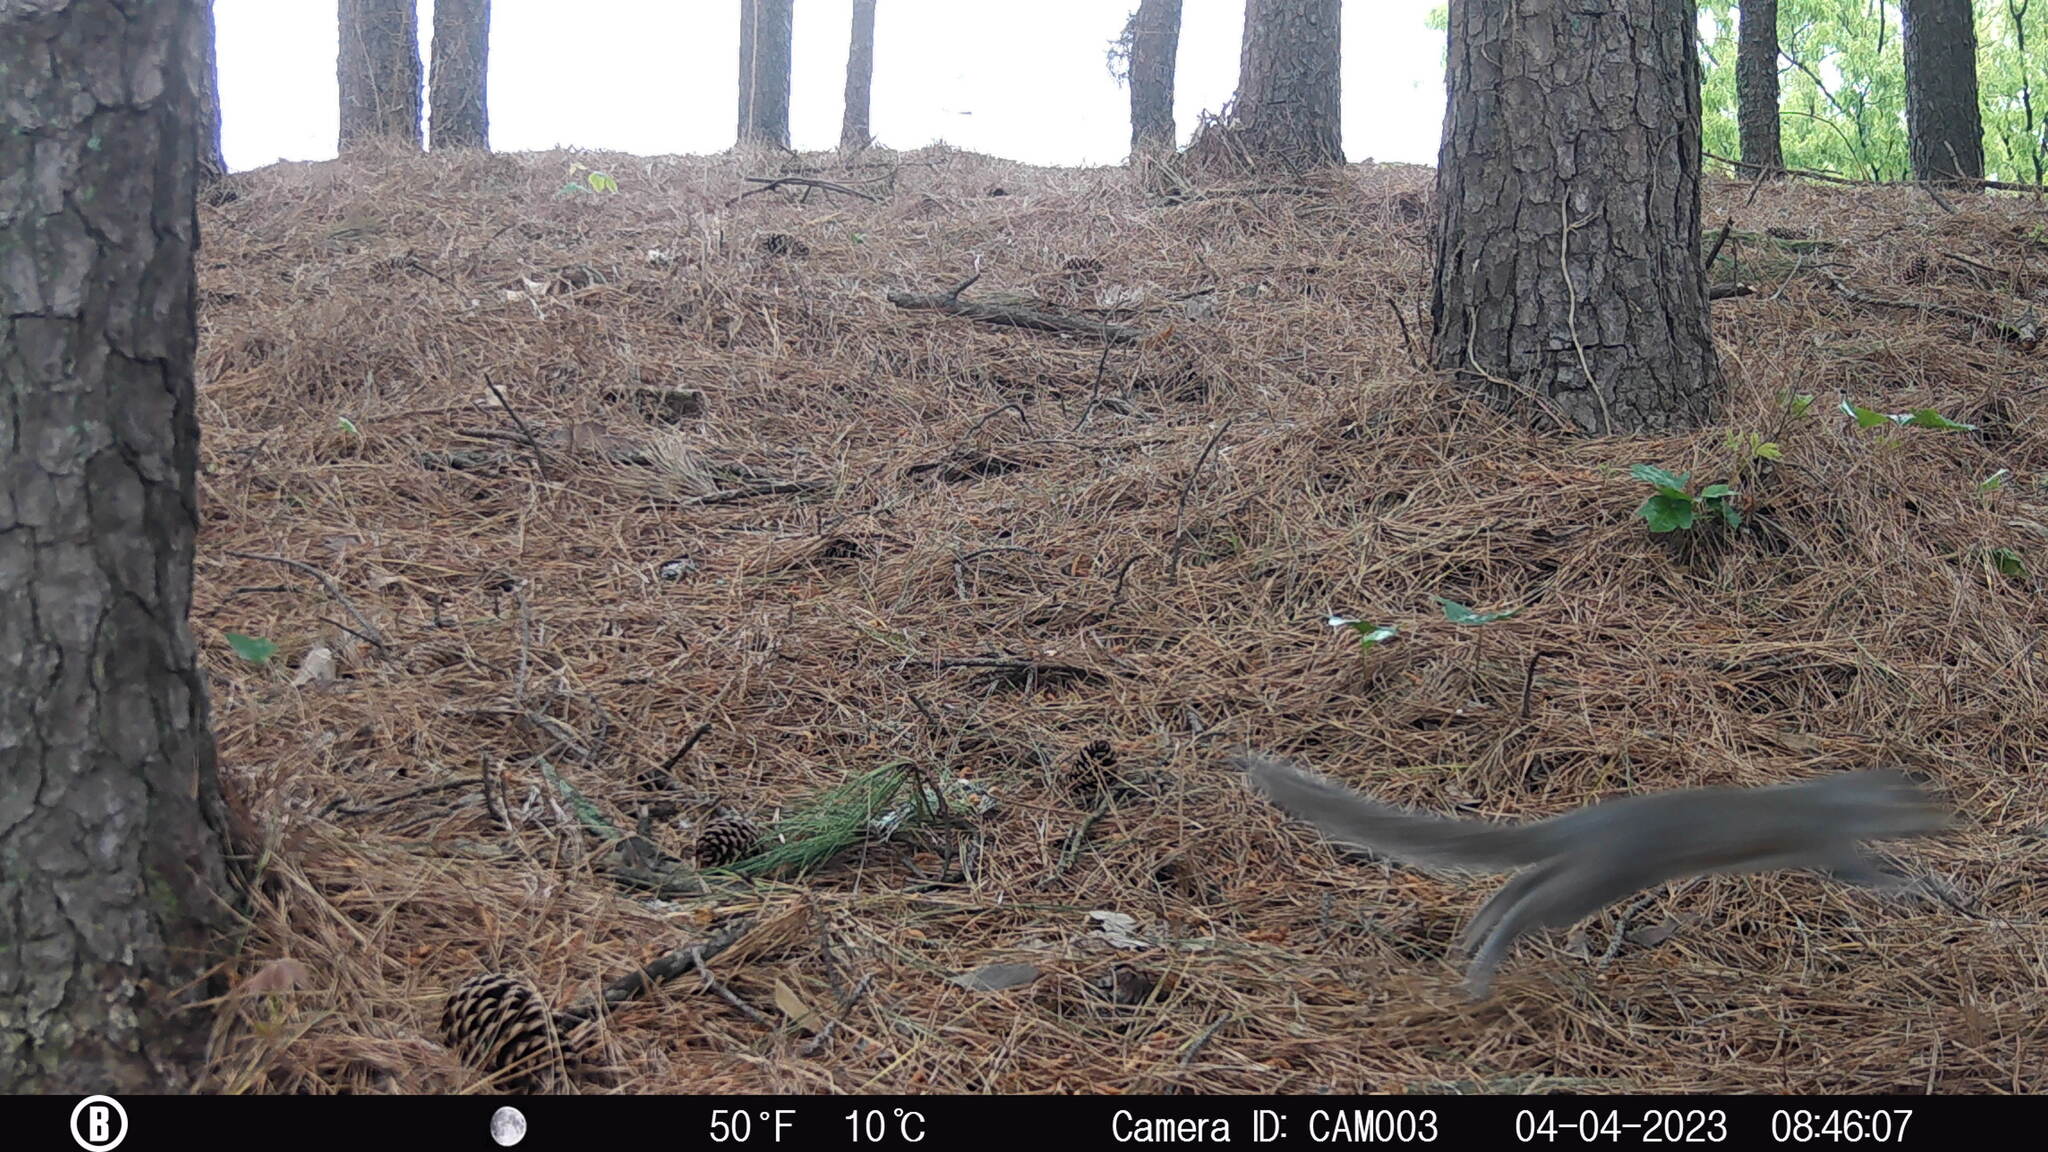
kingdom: Animalia
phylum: Chordata
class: Mammalia
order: Rodentia
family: Sciuridae
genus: Sciurus
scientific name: Sciurus carolinensis
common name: Eastern gray squirrel
